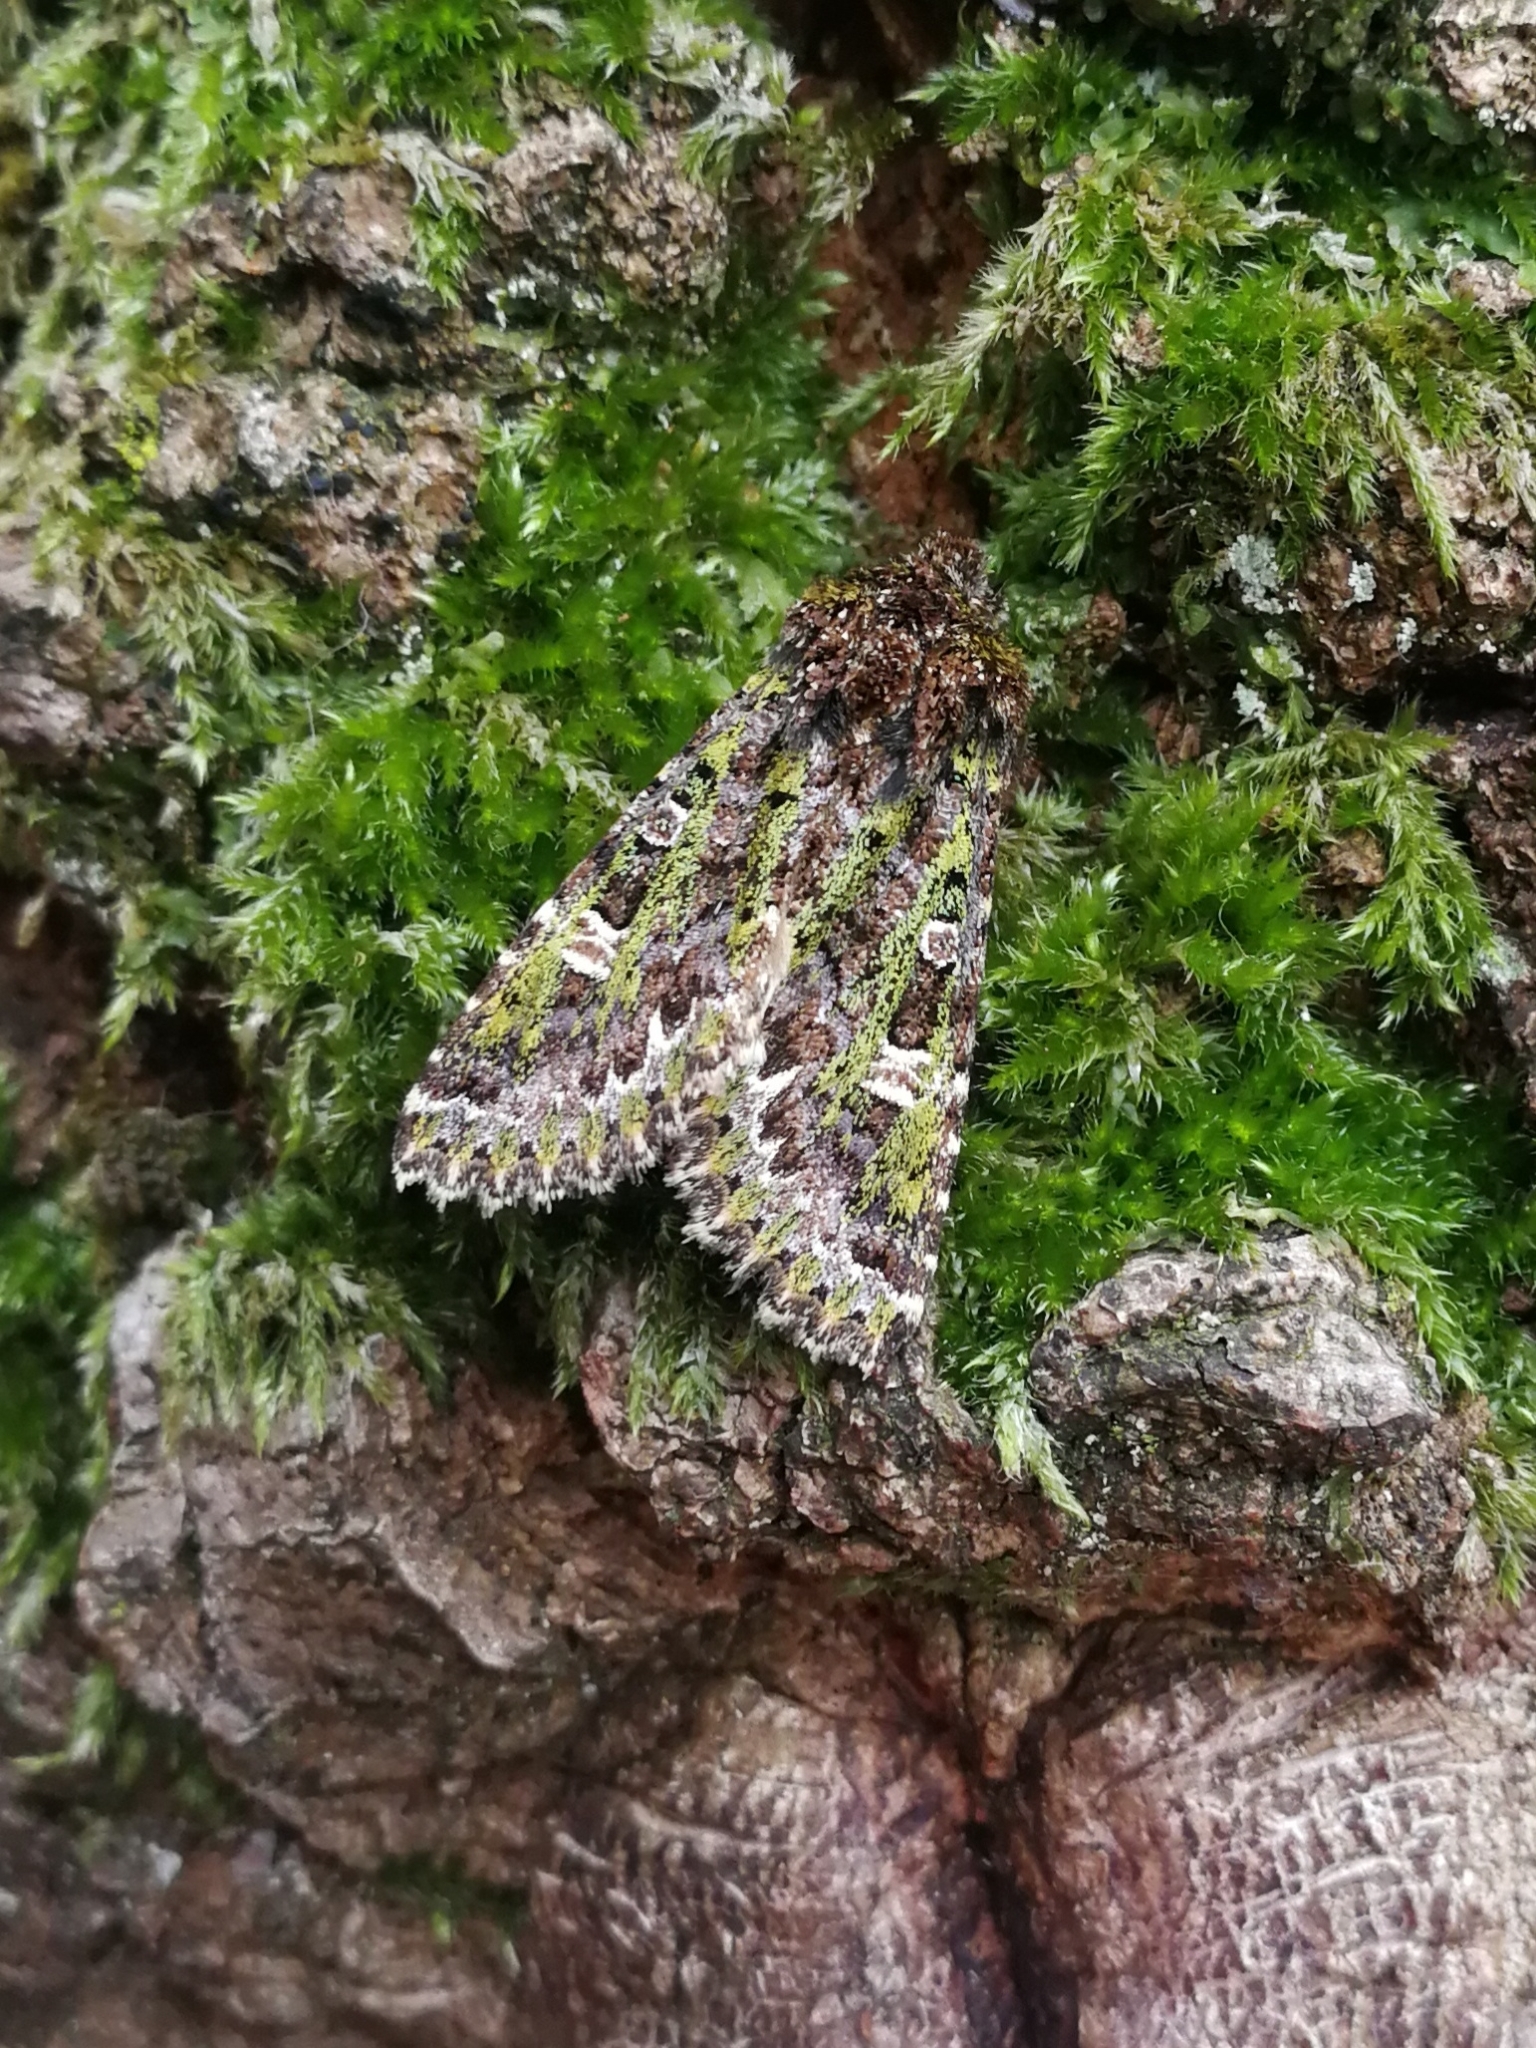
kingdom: Animalia
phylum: Arthropoda
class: Insecta
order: Lepidoptera
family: Noctuidae
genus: Valeria
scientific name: Valeria jaspidea
